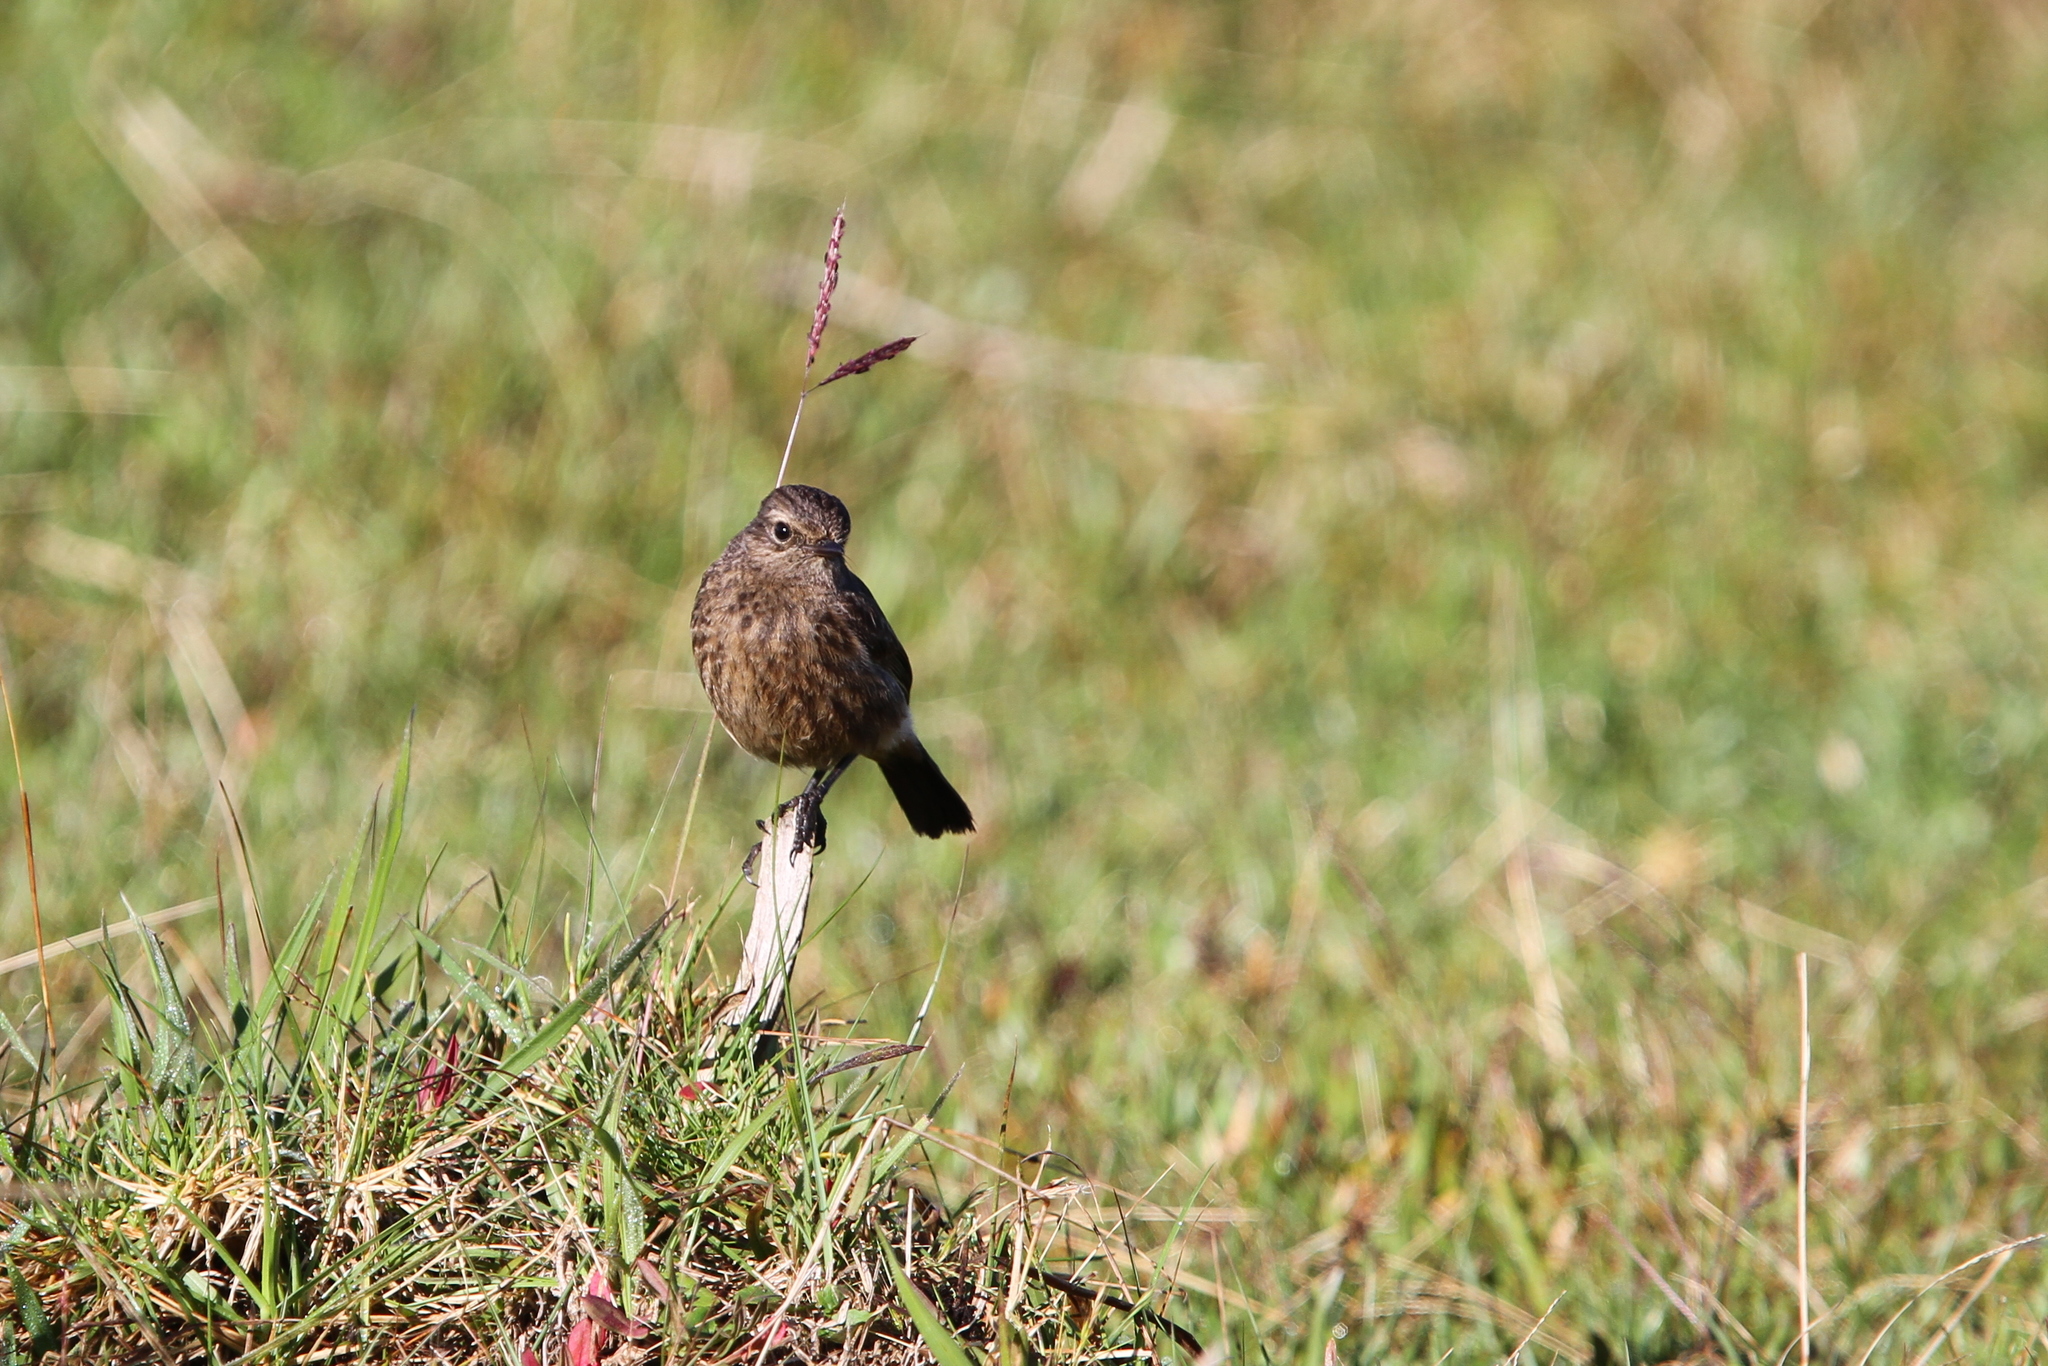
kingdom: Animalia
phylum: Chordata
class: Aves
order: Passeriformes
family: Muscicapidae
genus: Saxicola
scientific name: Saxicola caprata
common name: Pied bush chat
